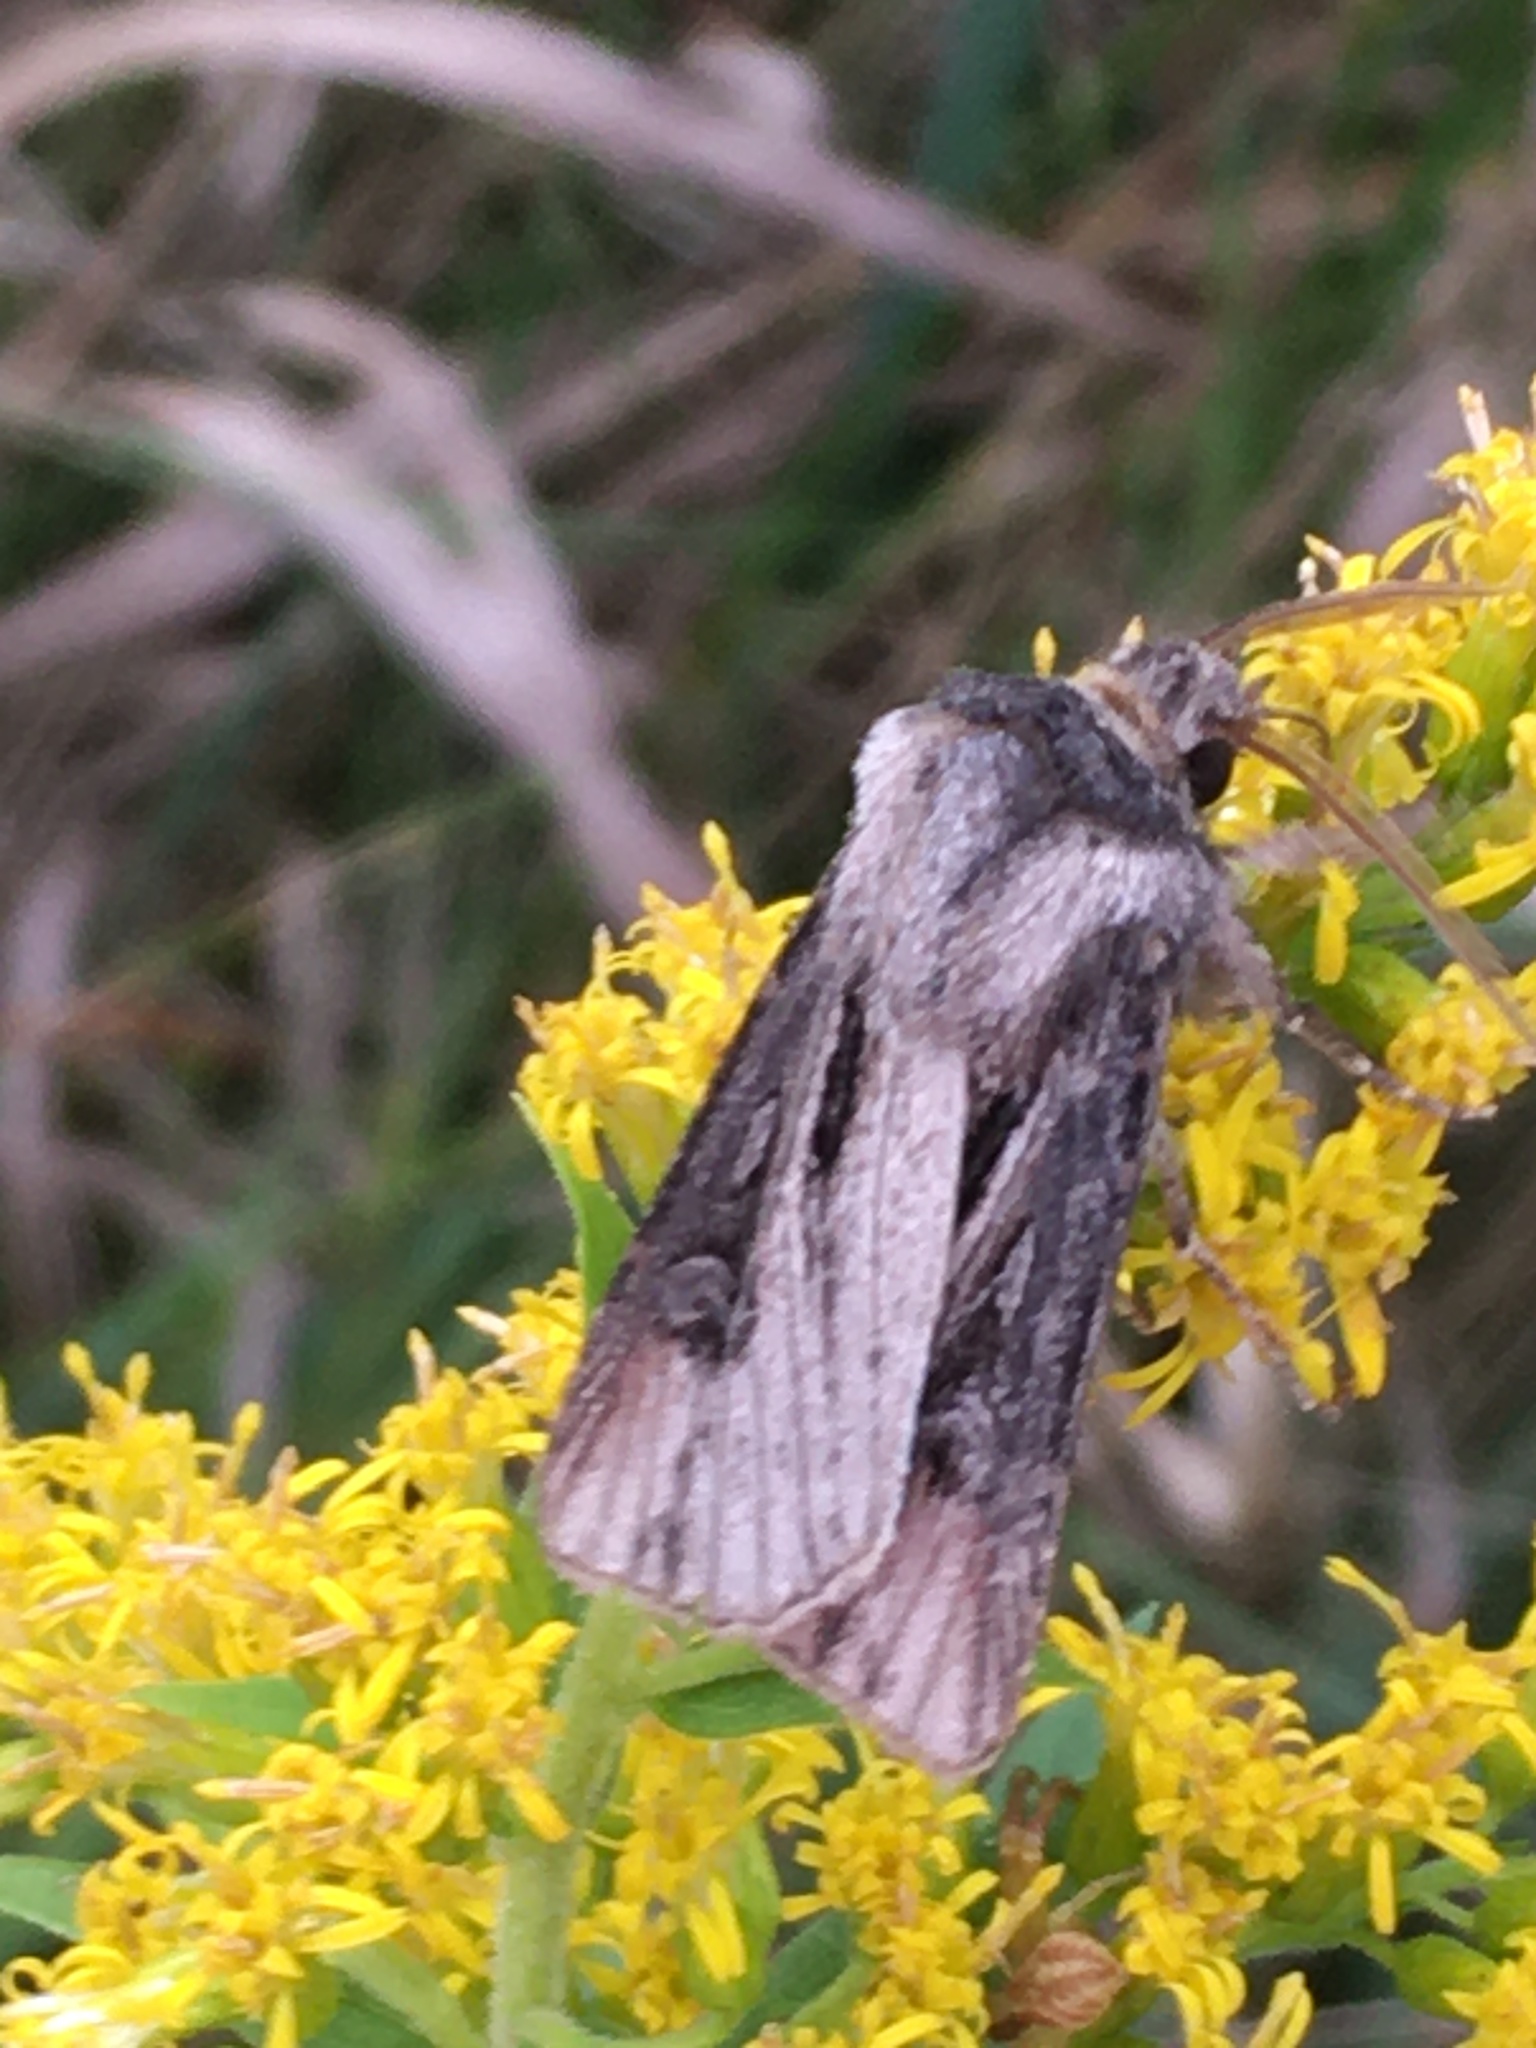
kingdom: Animalia
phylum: Arthropoda
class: Insecta
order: Lepidoptera
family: Noctuidae
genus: Agrotis
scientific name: Agrotis venerabilis
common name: Venerable dart
